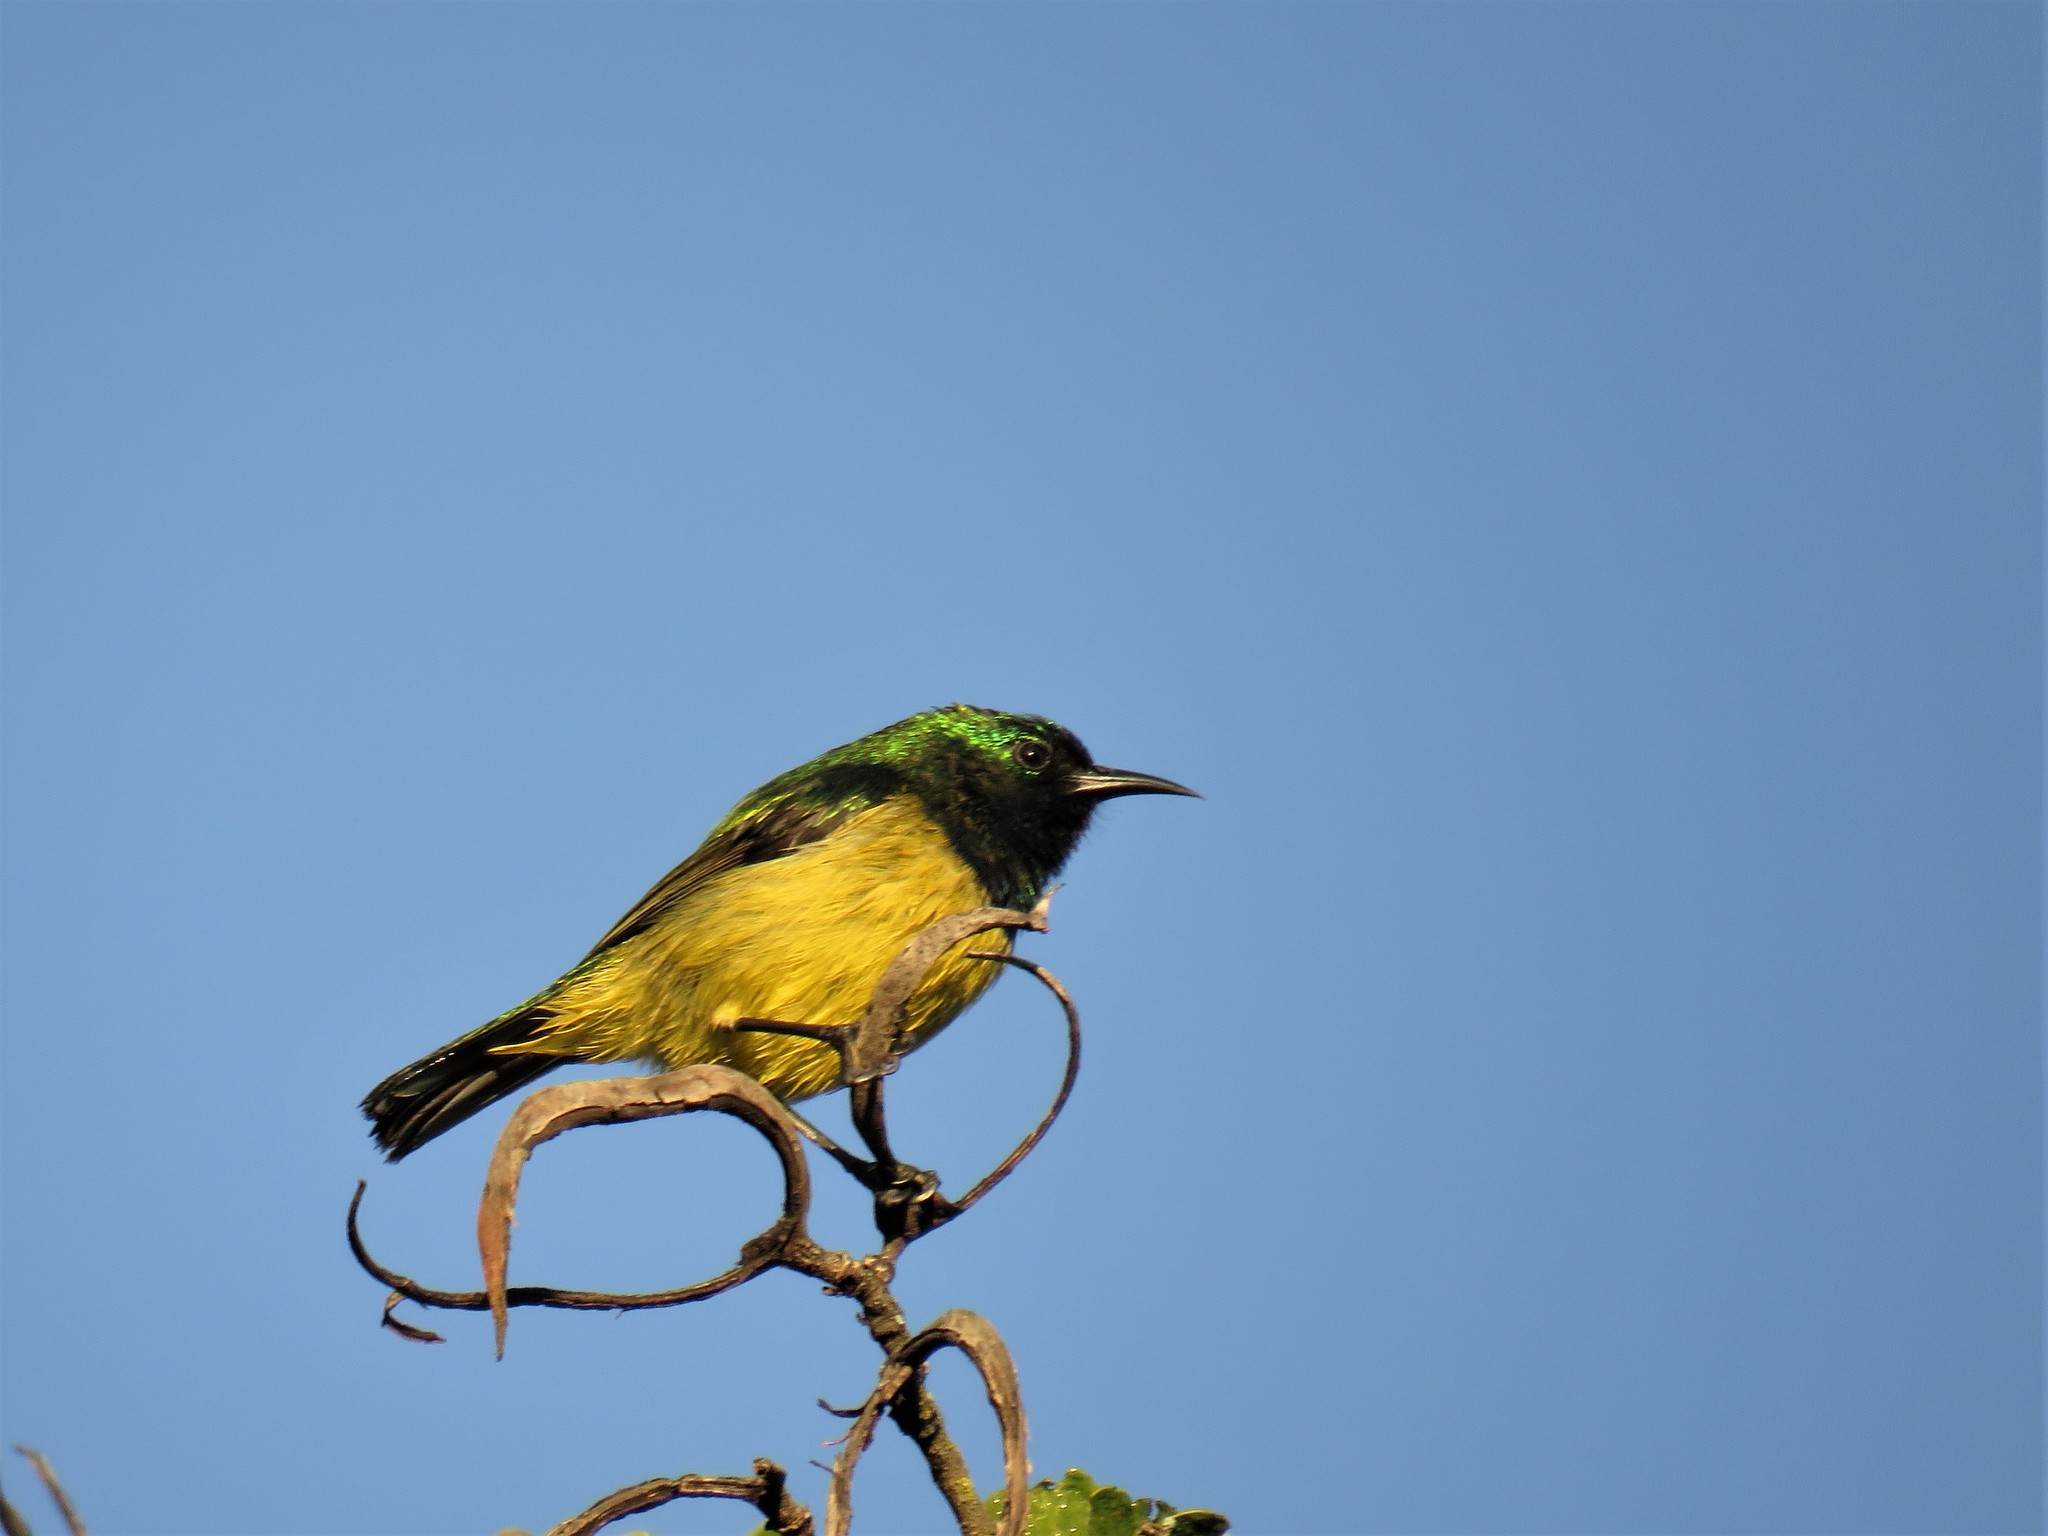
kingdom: Animalia
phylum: Chordata
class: Aves
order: Passeriformes
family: Nectariniidae
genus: Hedydipna
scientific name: Hedydipna collaris
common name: Collared sunbird
